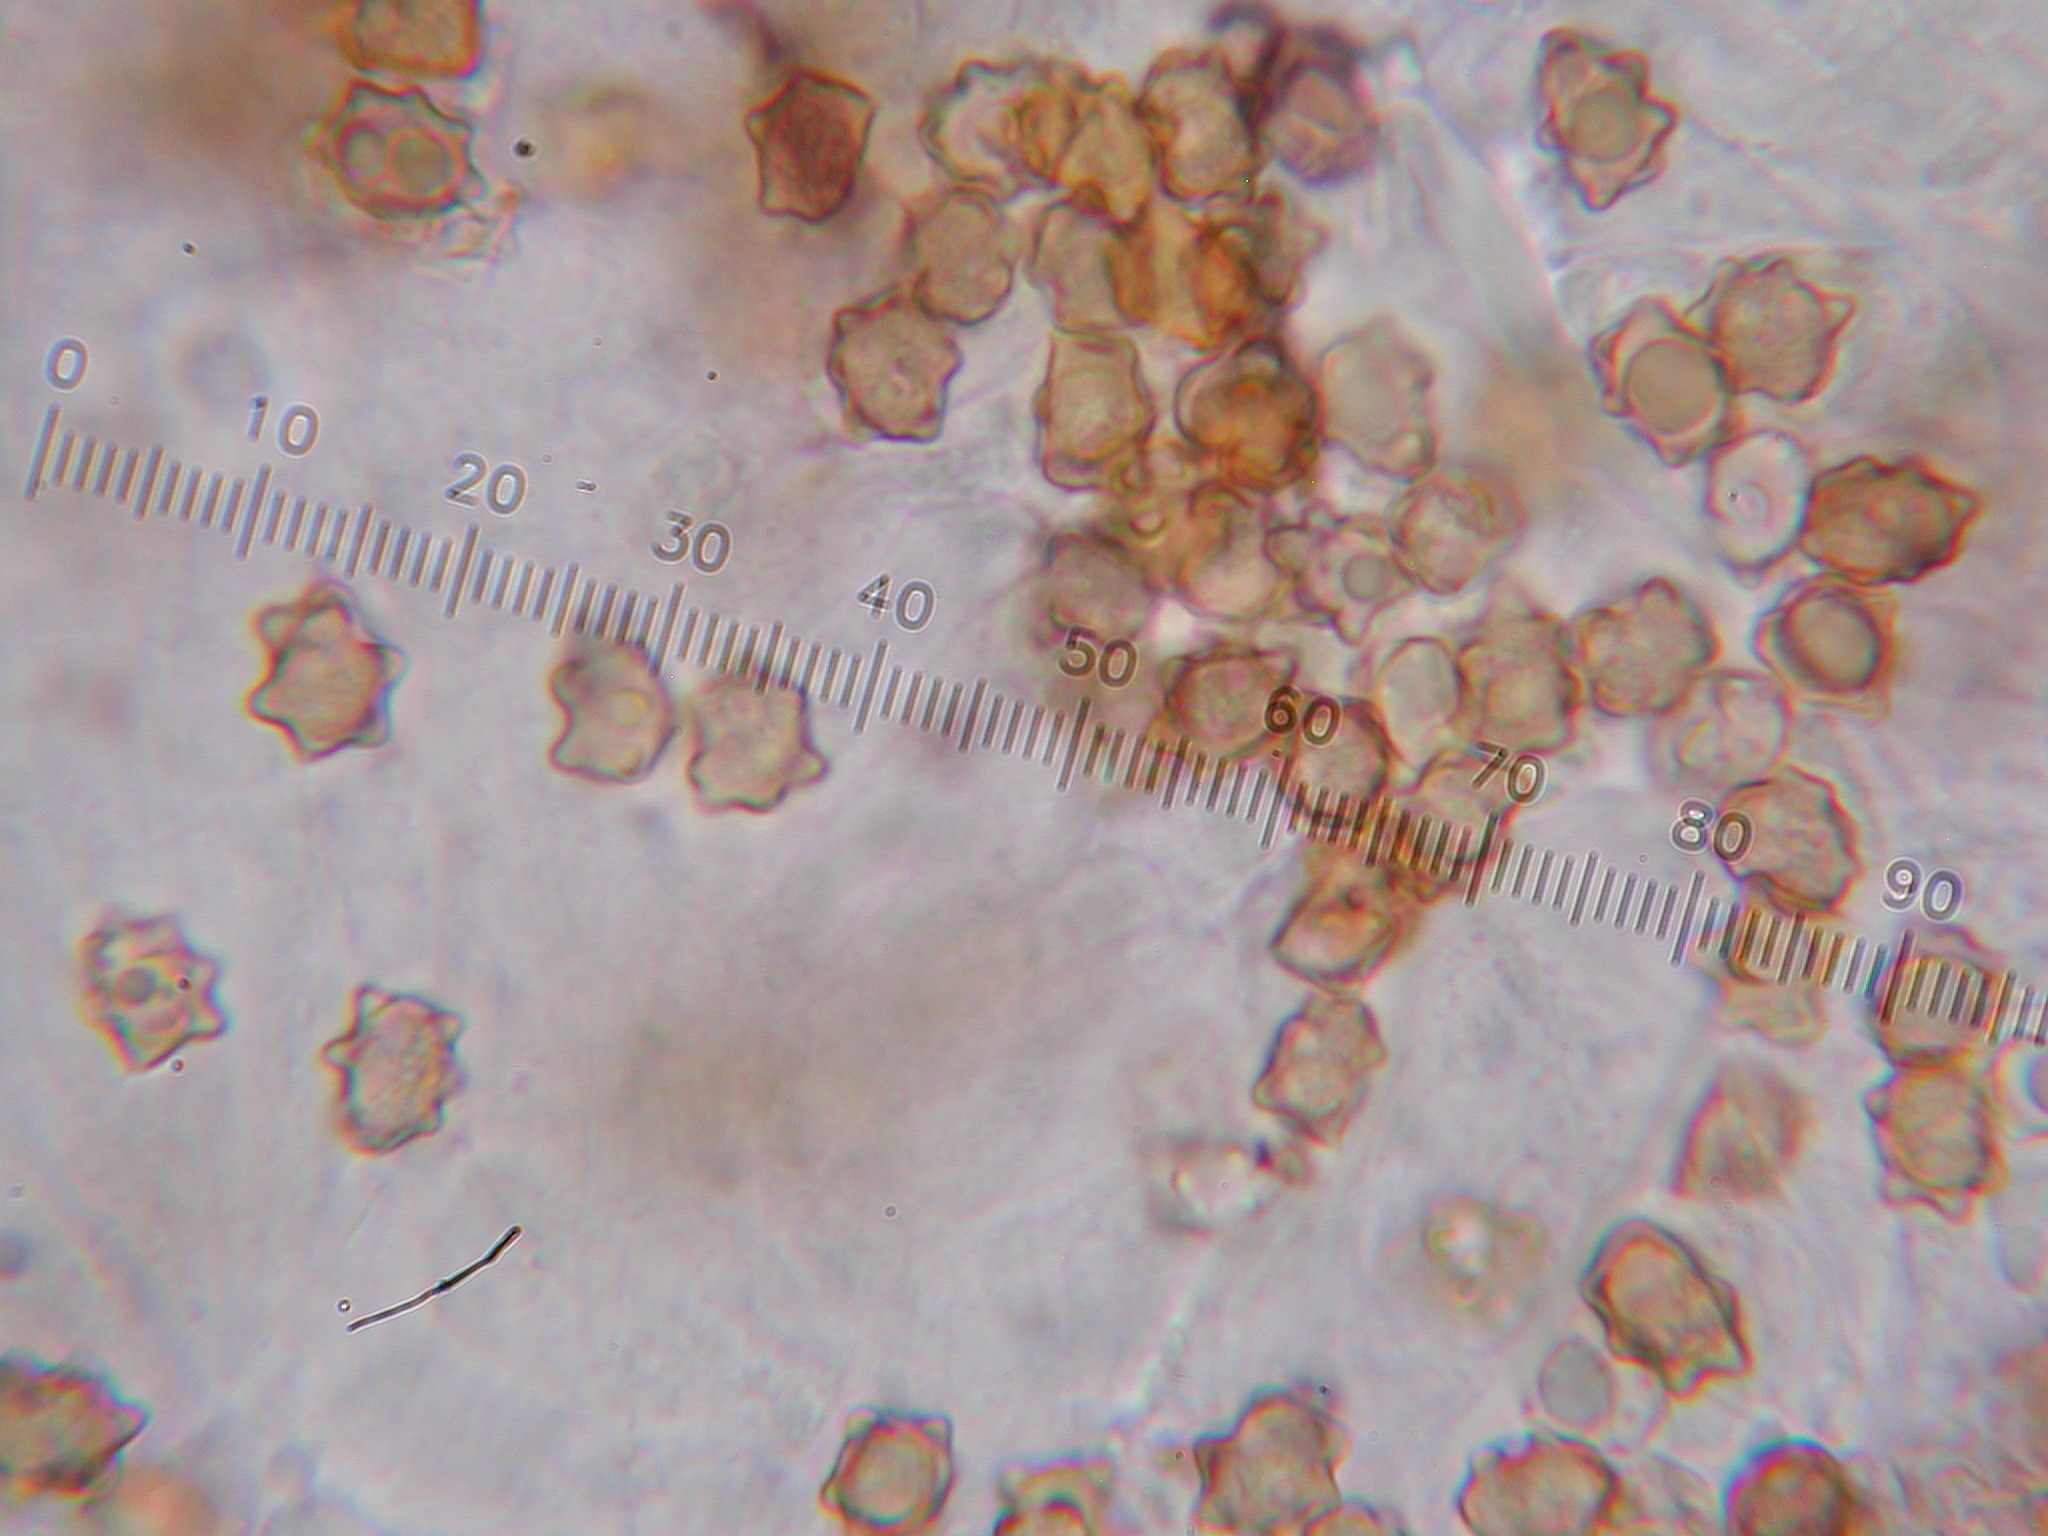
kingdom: Fungi
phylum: Basidiomycota
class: Agaricomycetes
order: Agaricales
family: Inocybaceae
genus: Inocybe
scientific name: Inocybe fulvilubrica
